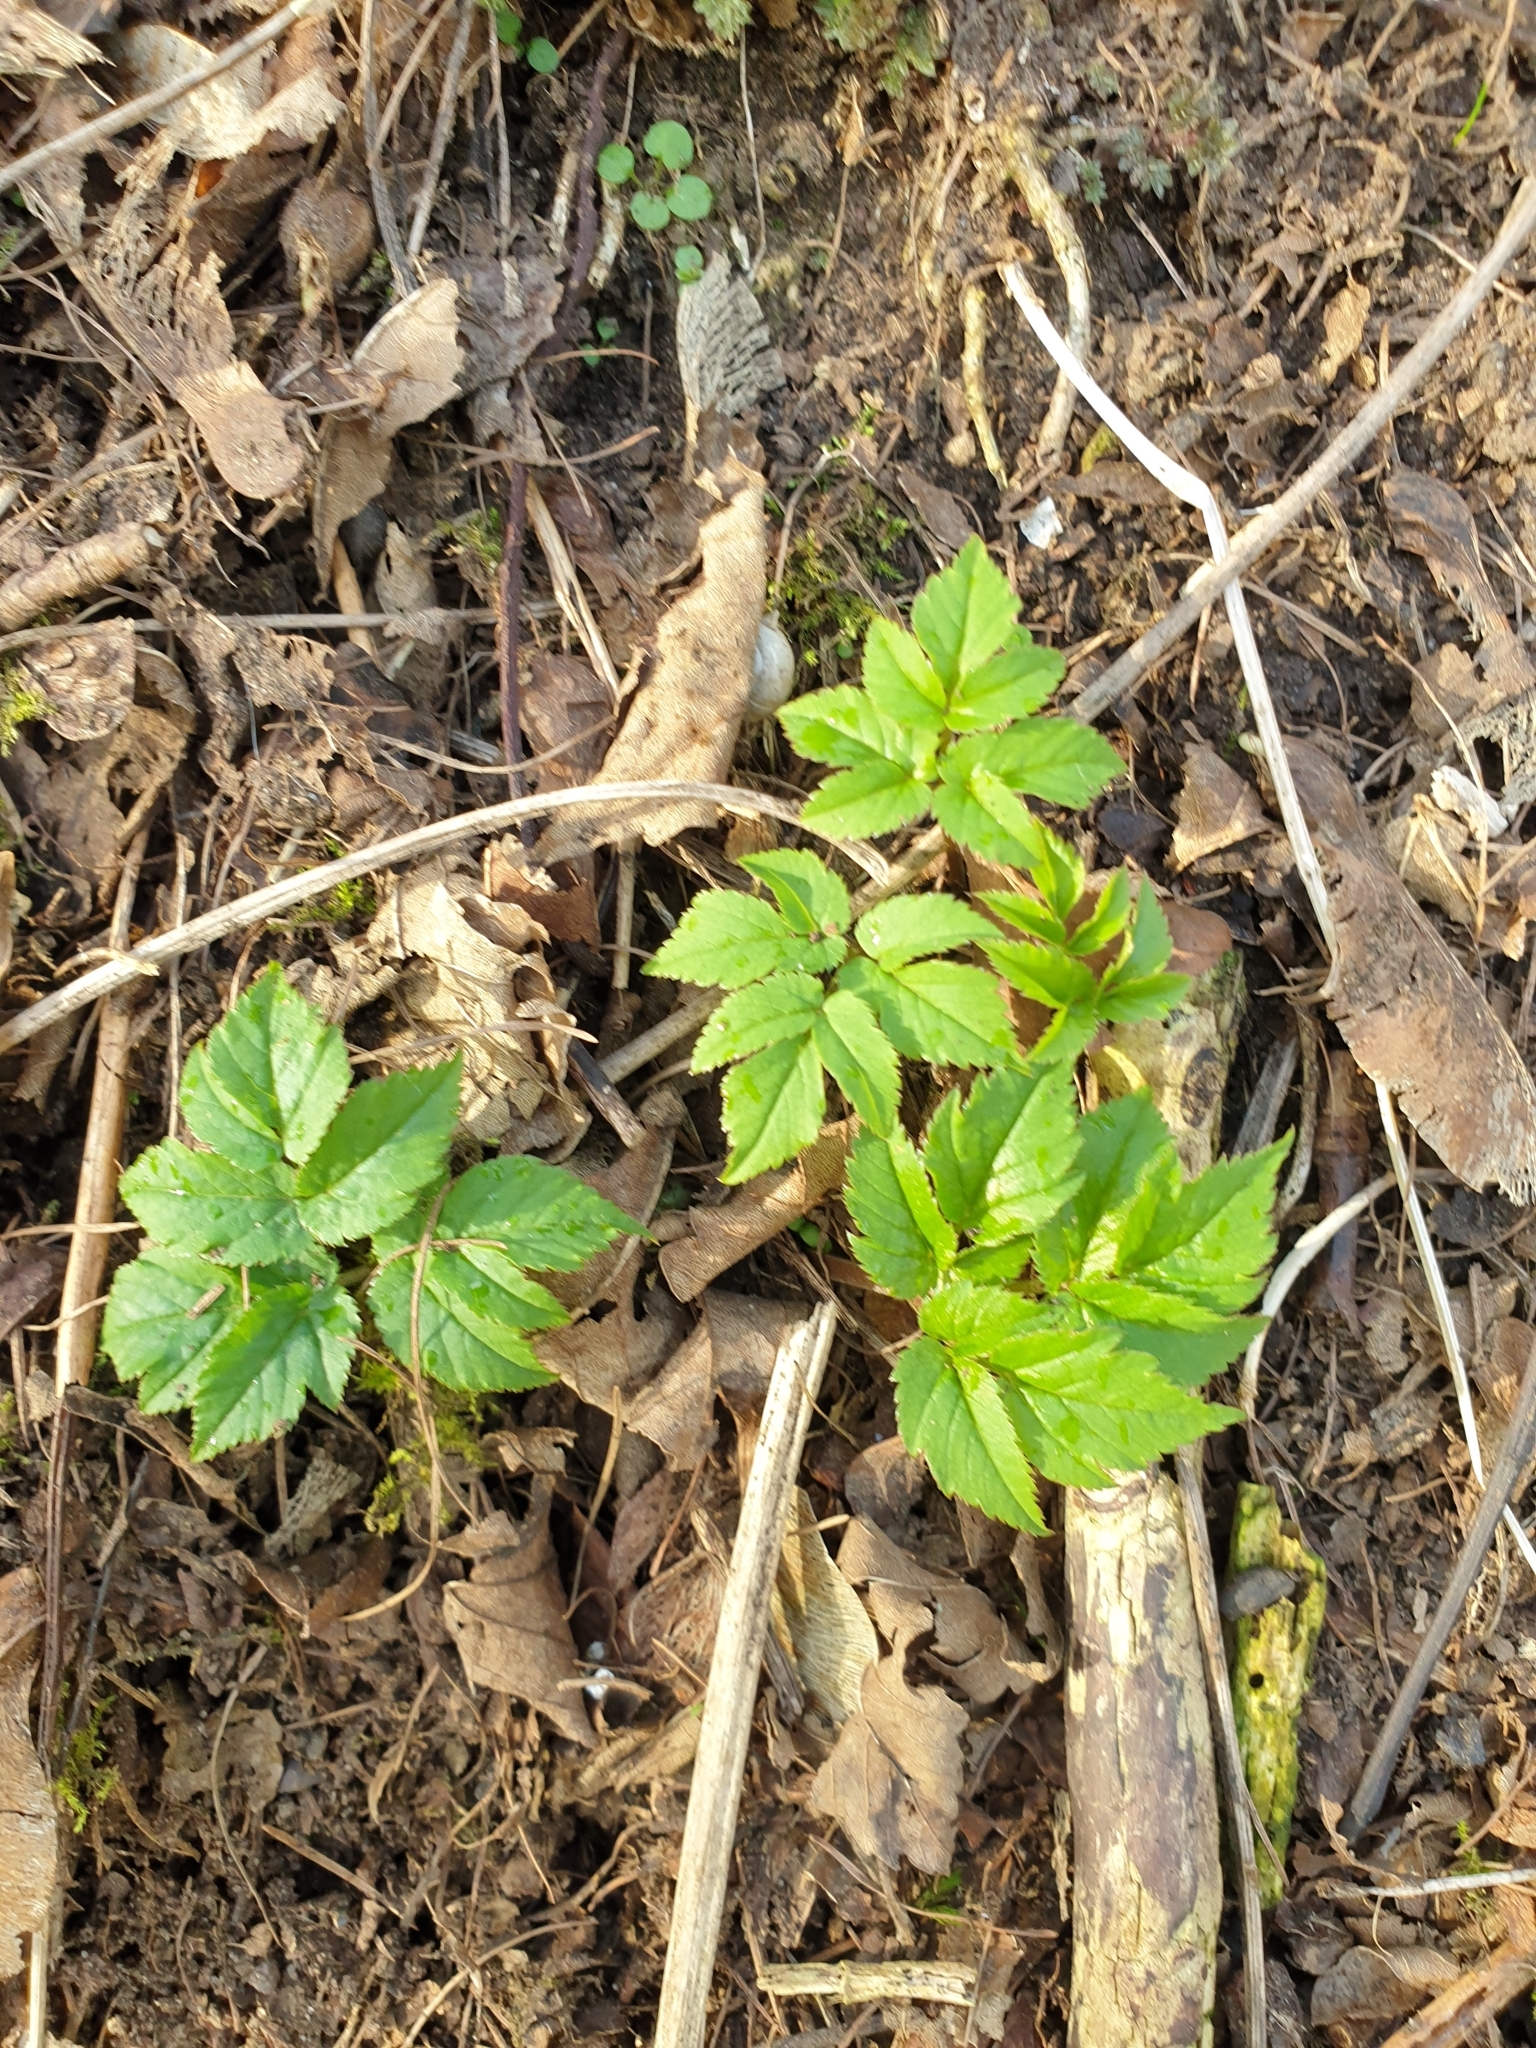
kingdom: Plantae
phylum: Tracheophyta
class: Magnoliopsida
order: Apiales
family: Apiaceae
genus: Aegopodium
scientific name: Aegopodium podagraria
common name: Ground-elder
